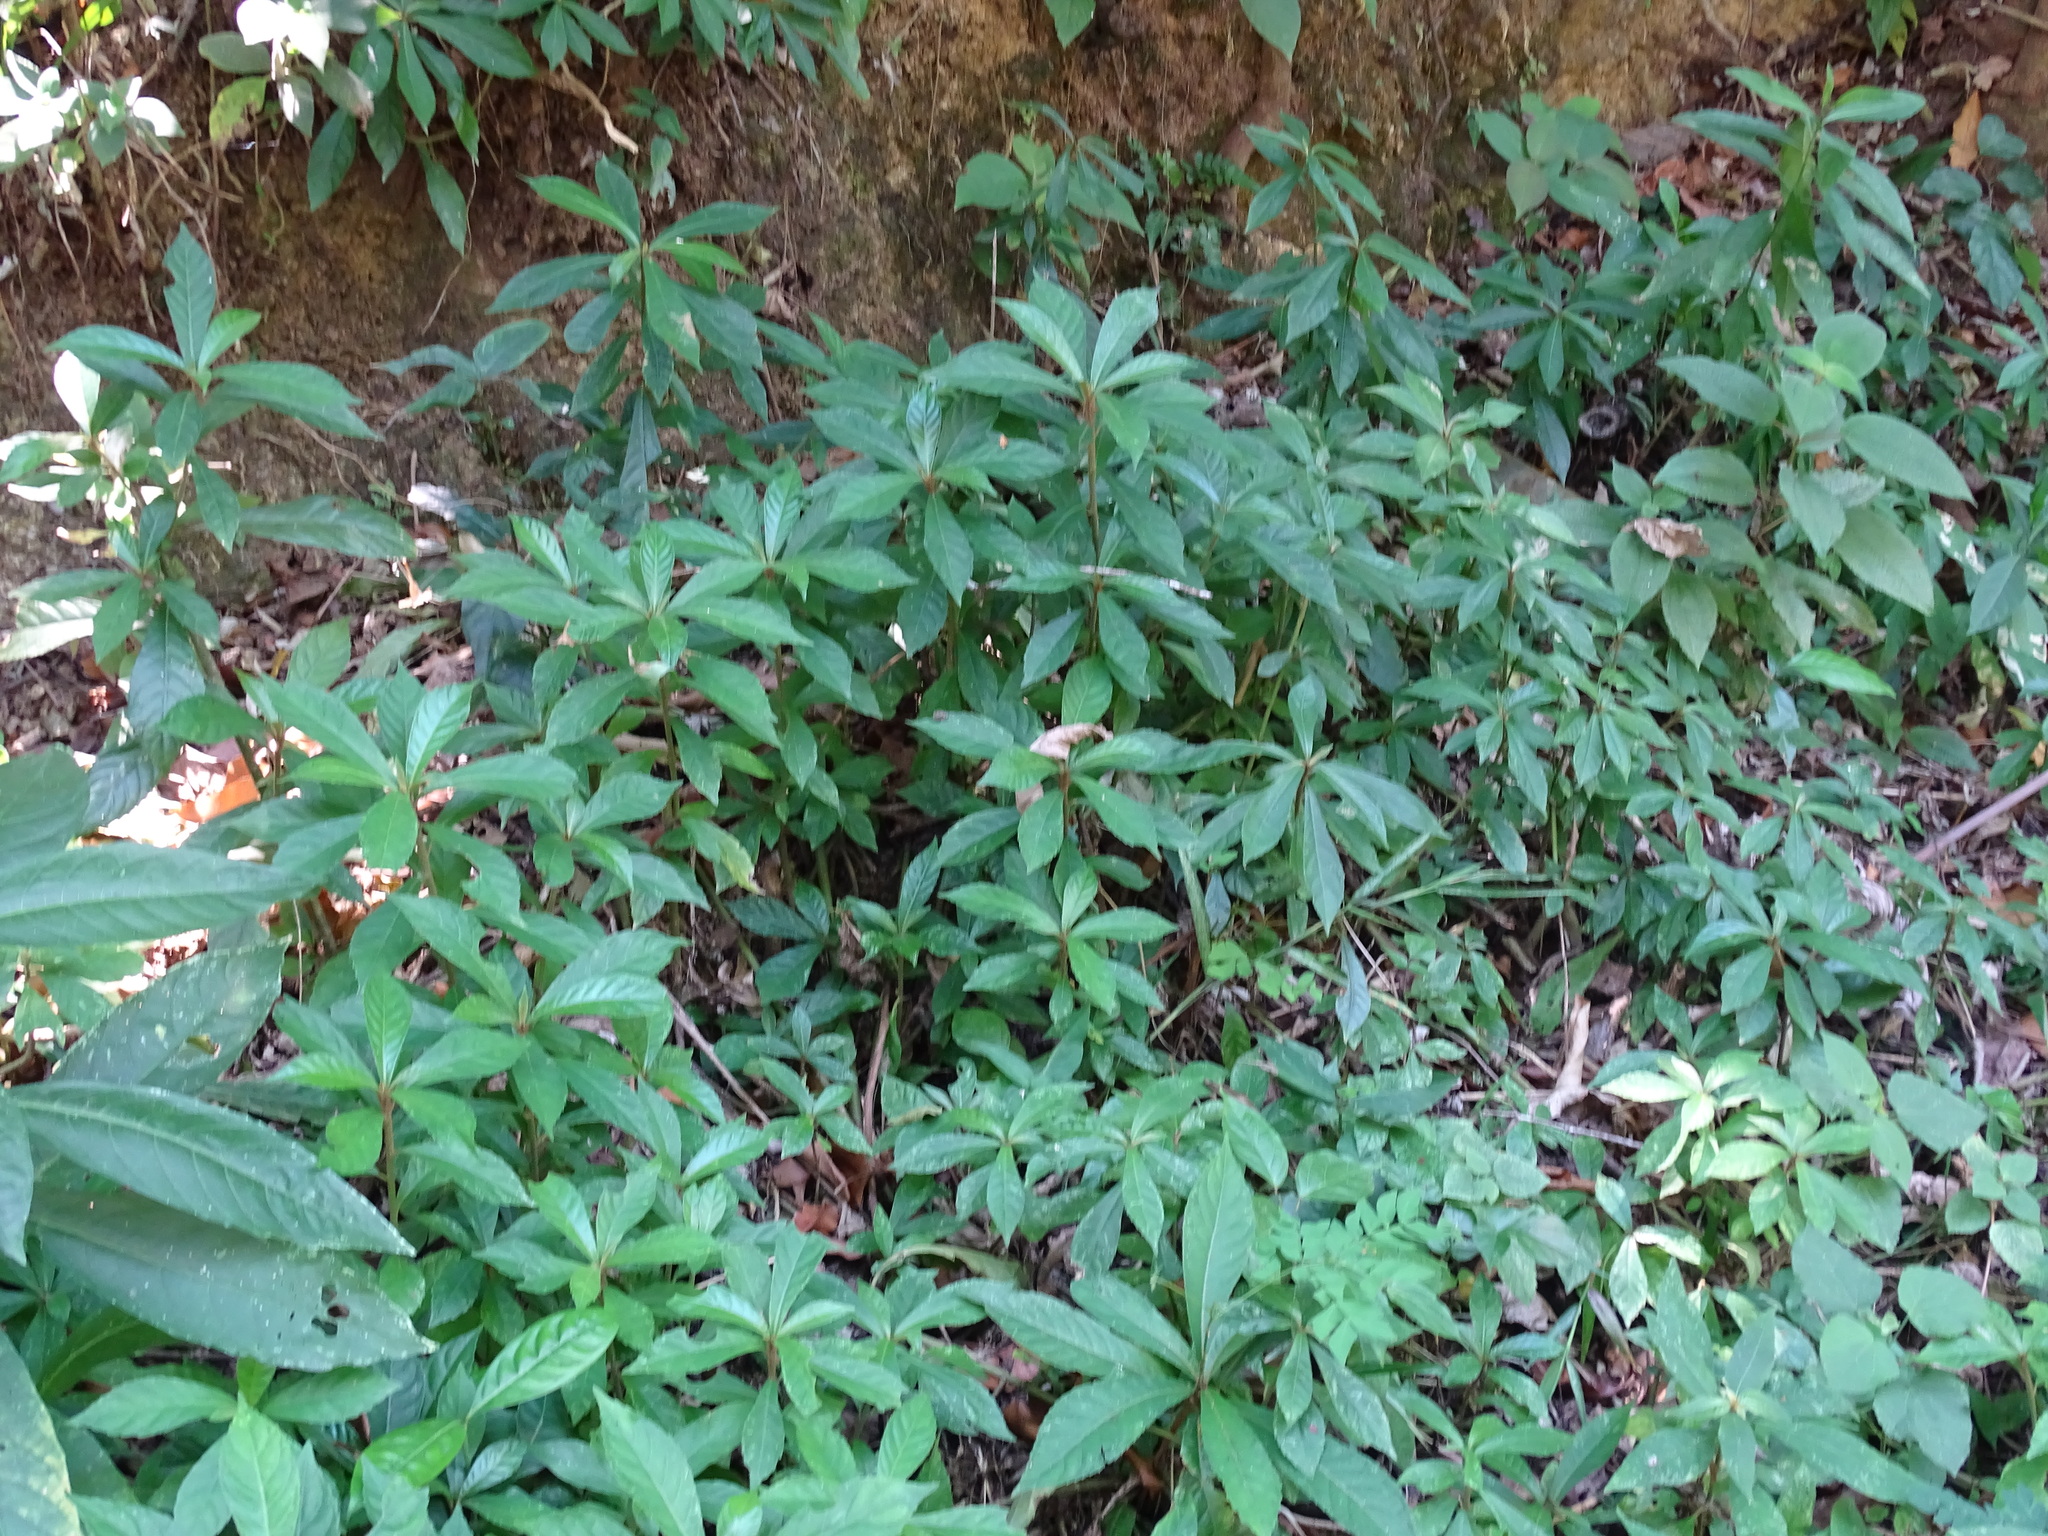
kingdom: Plantae
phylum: Tracheophyta
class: Magnoliopsida
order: Asterales
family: Asteraceae
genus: Lepidonia
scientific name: Lepidonia salvinae
